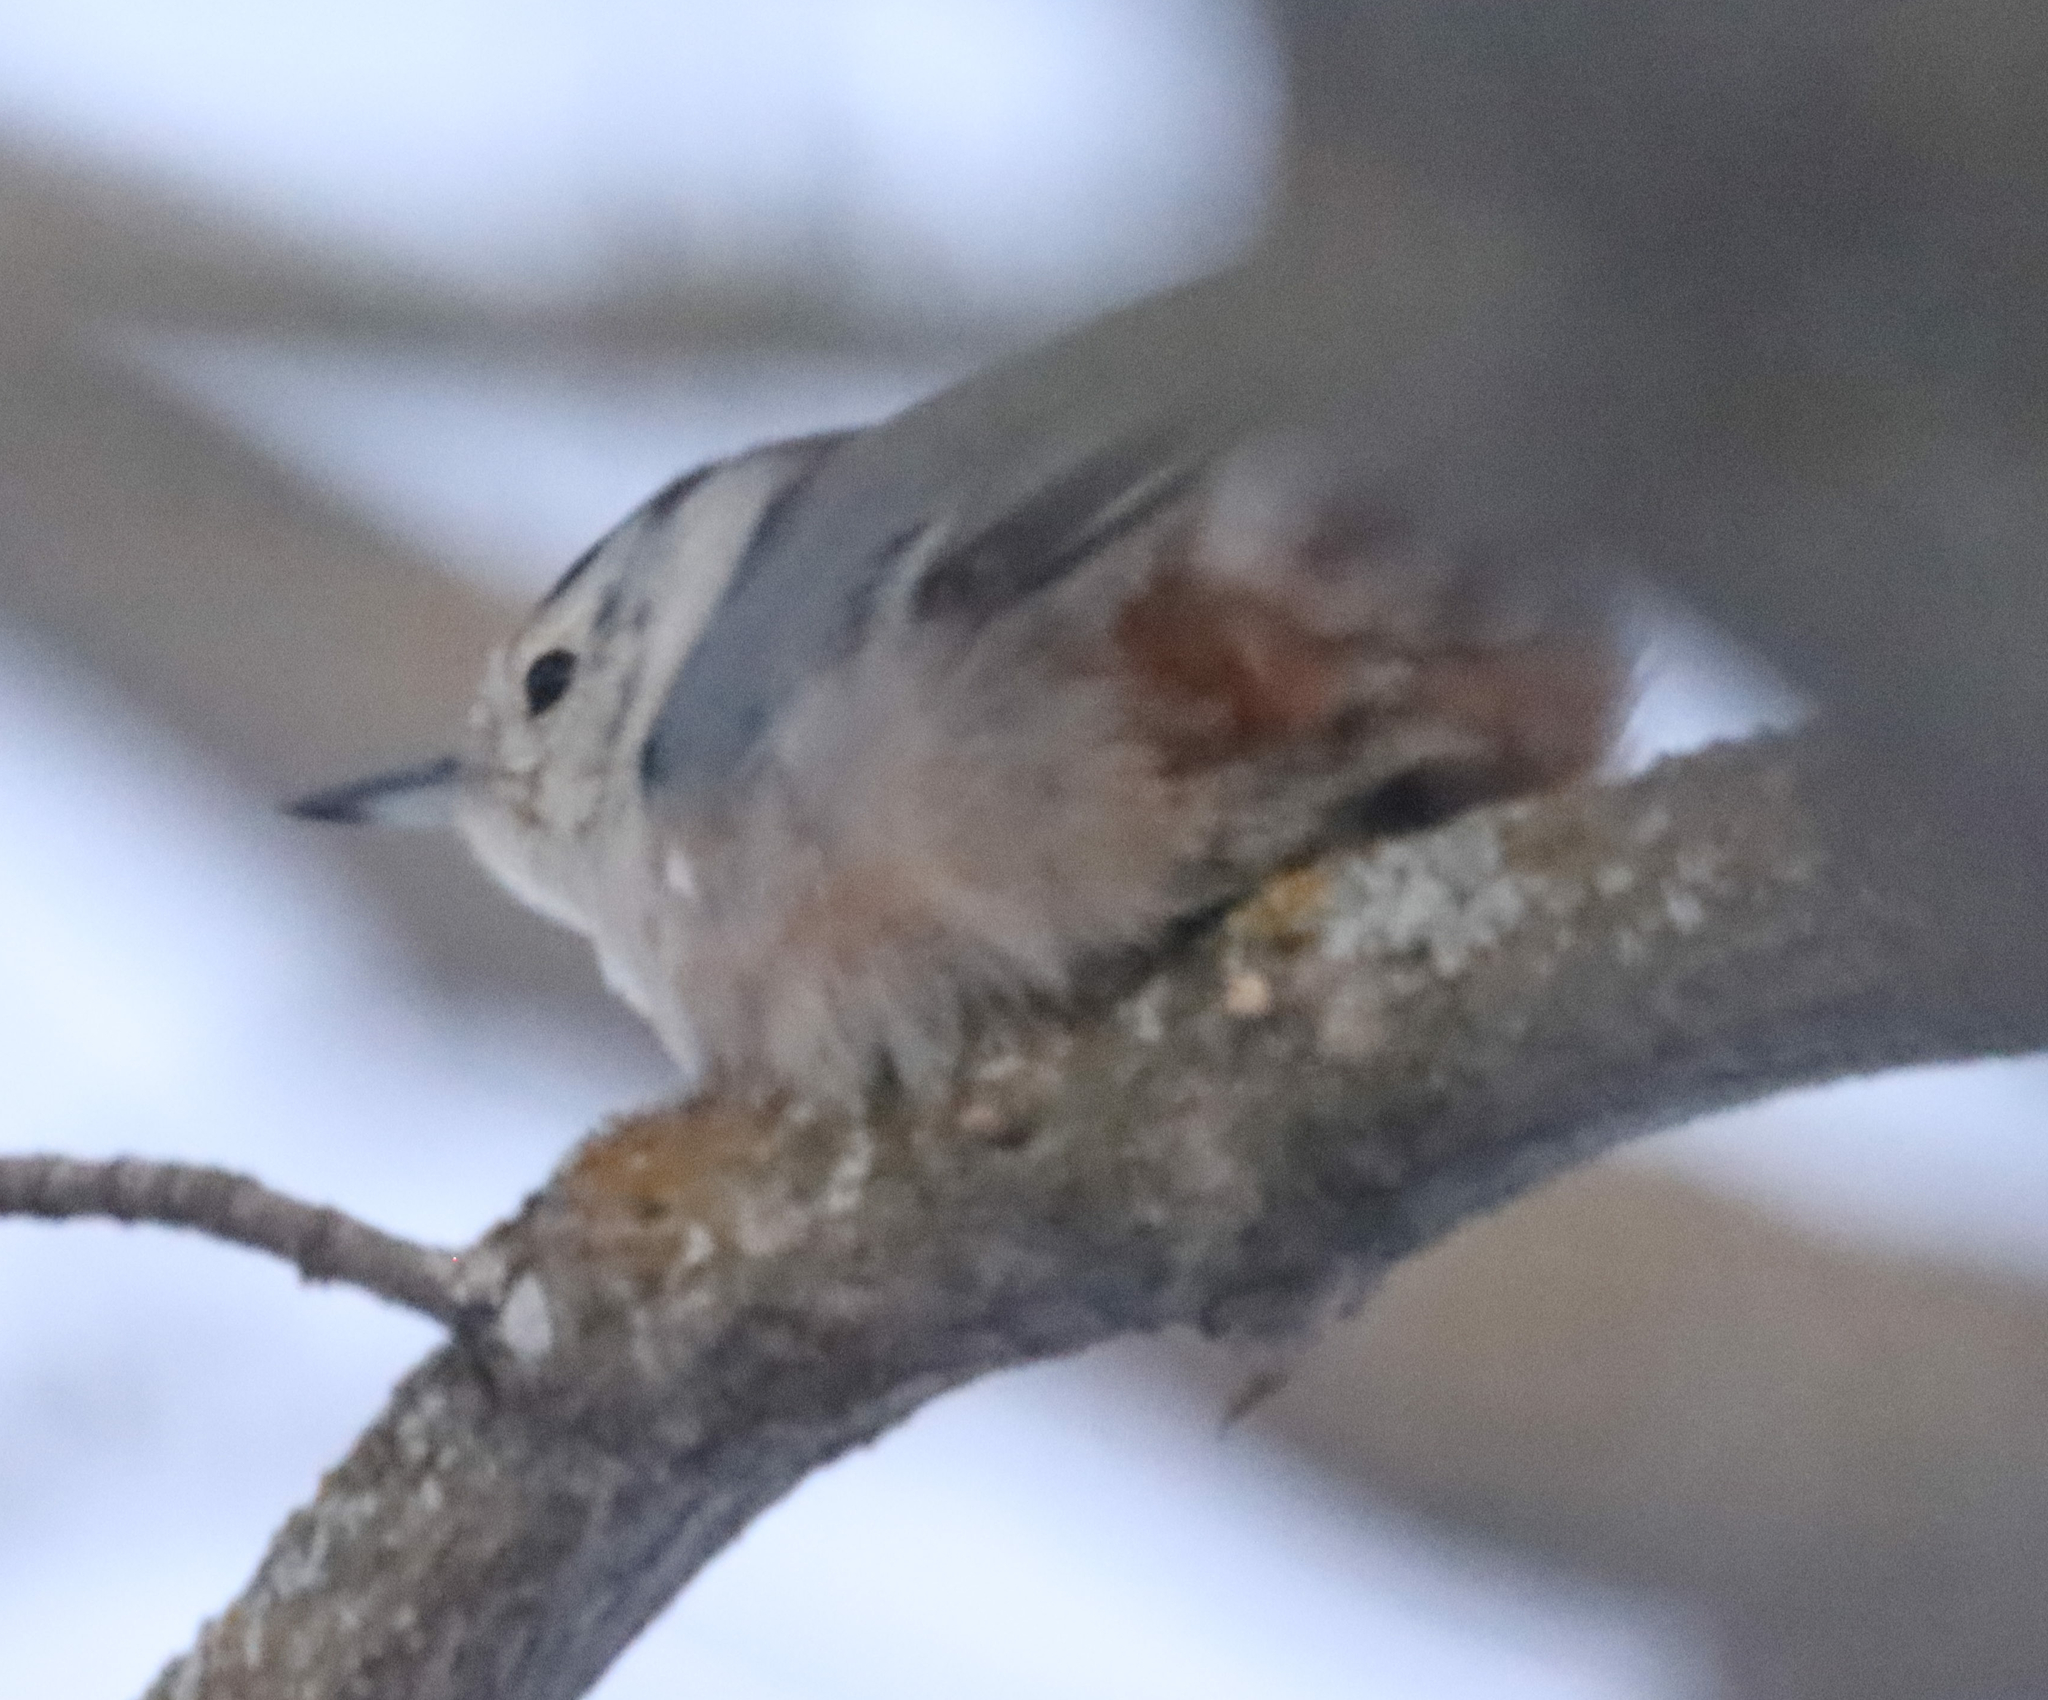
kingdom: Animalia
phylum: Chordata
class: Aves
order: Passeriformes
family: Sittidae
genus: Sitta
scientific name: Sitta carolinensis
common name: White-breasted nuthatch
